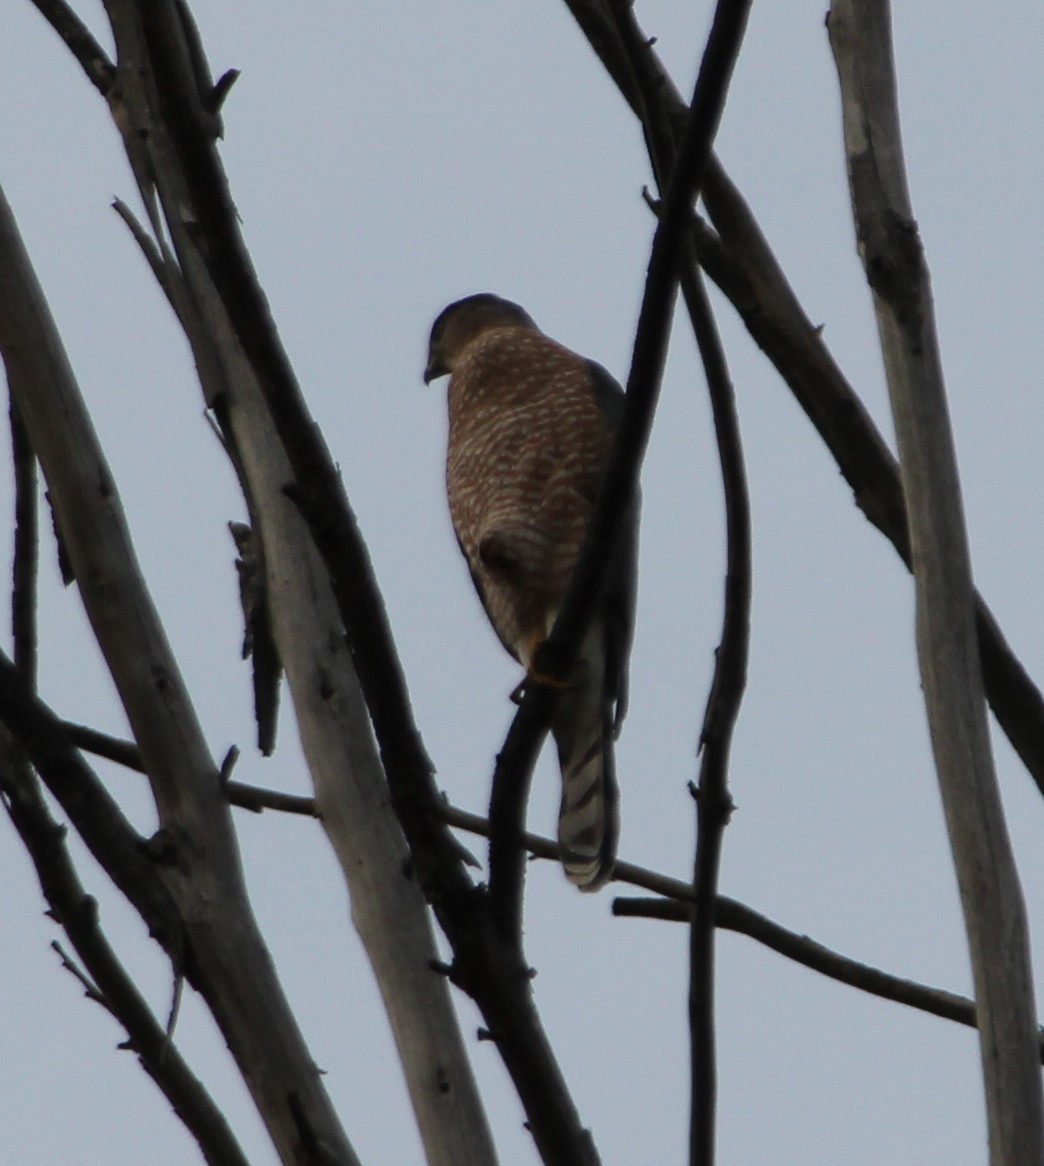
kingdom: Animalia
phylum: Chordata
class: Aves
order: Accipitriformes
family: Accipitridae
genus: Accipiter
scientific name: Accipiter cooperii
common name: Cooper's hawk
